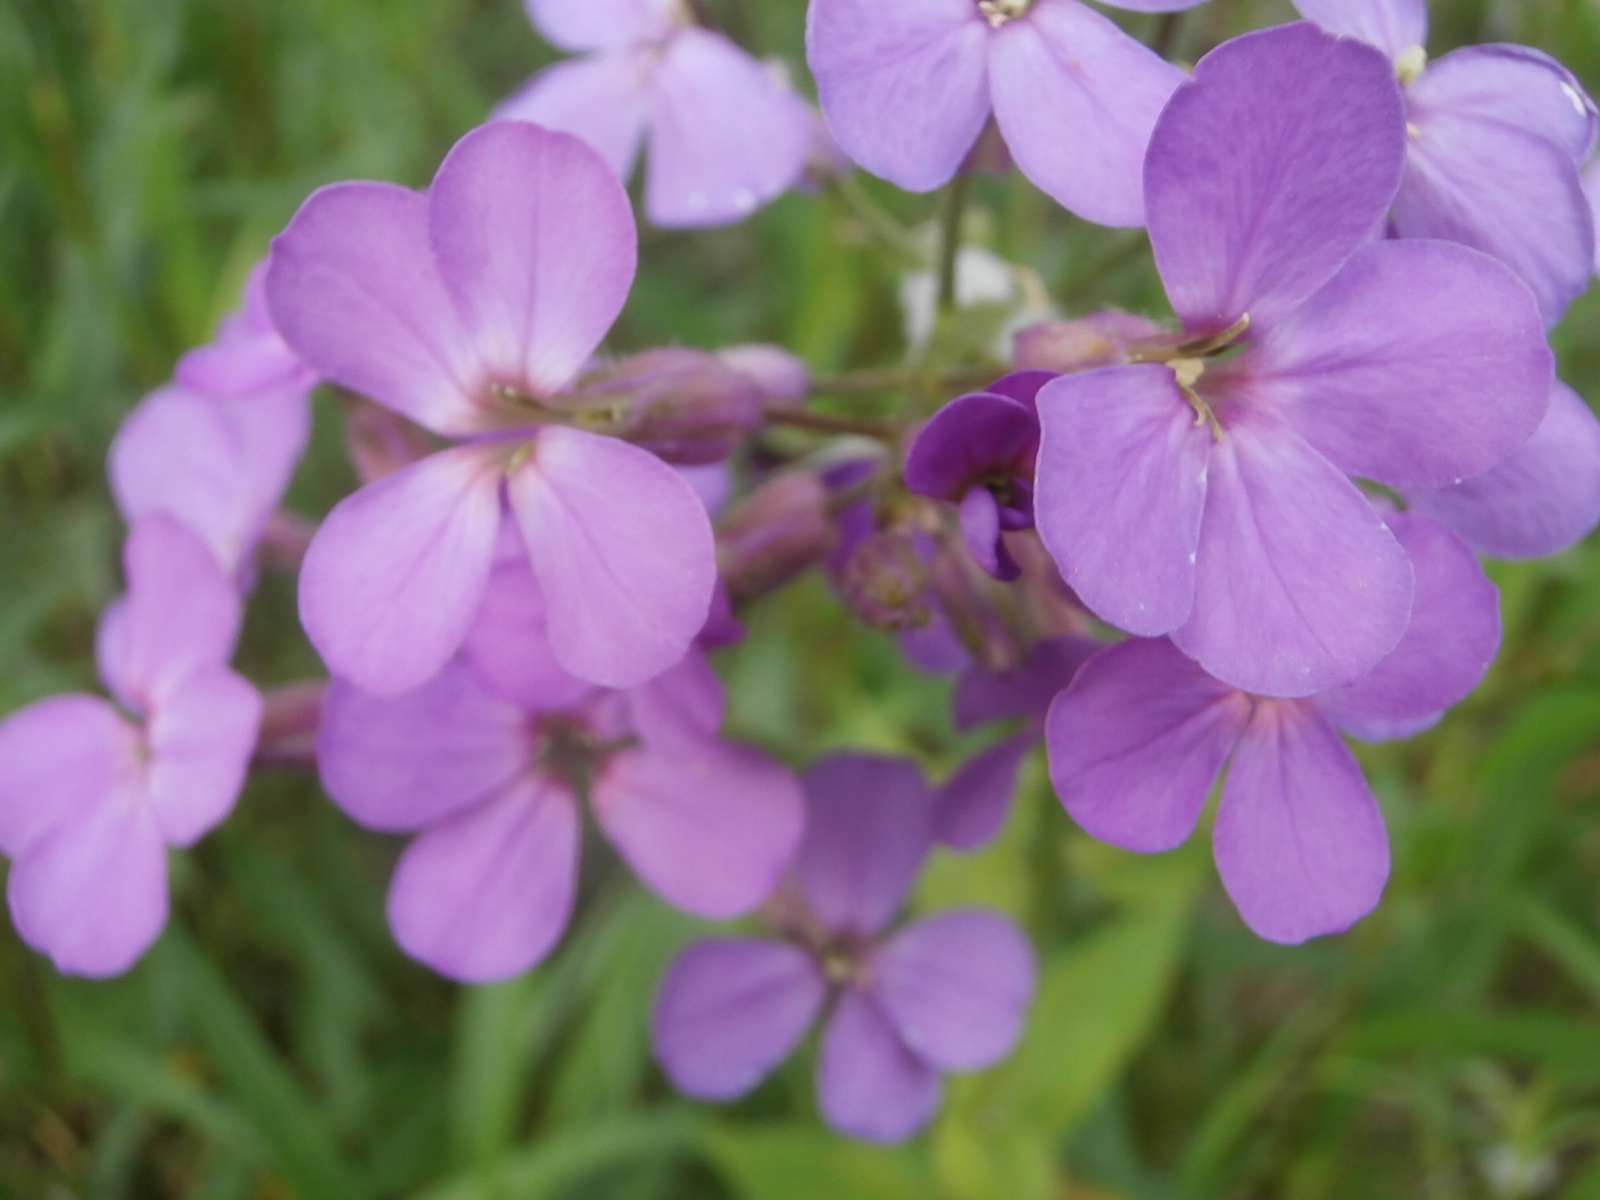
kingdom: Plantae
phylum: Tracheophyta
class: Magnoliopsida
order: Brassicales
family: Brassicaceae
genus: Hesperis
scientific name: Hesperis matronalis
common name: Dame's-violet
